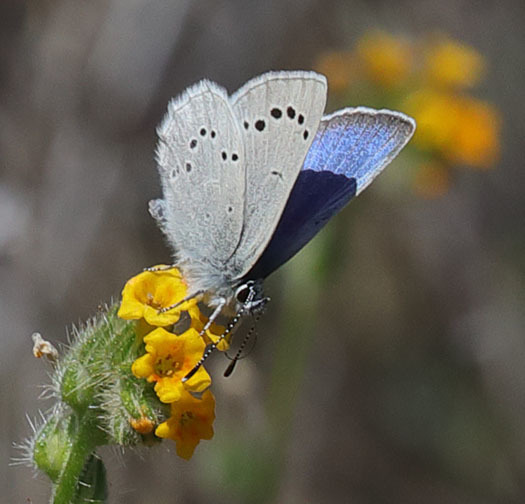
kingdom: Animalia
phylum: Arthropoda
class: Insecta
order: Lepidoptera
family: Lycaenidae
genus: Glaucopsyche
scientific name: Glaucopsyche lygdamus
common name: Silvery blue
